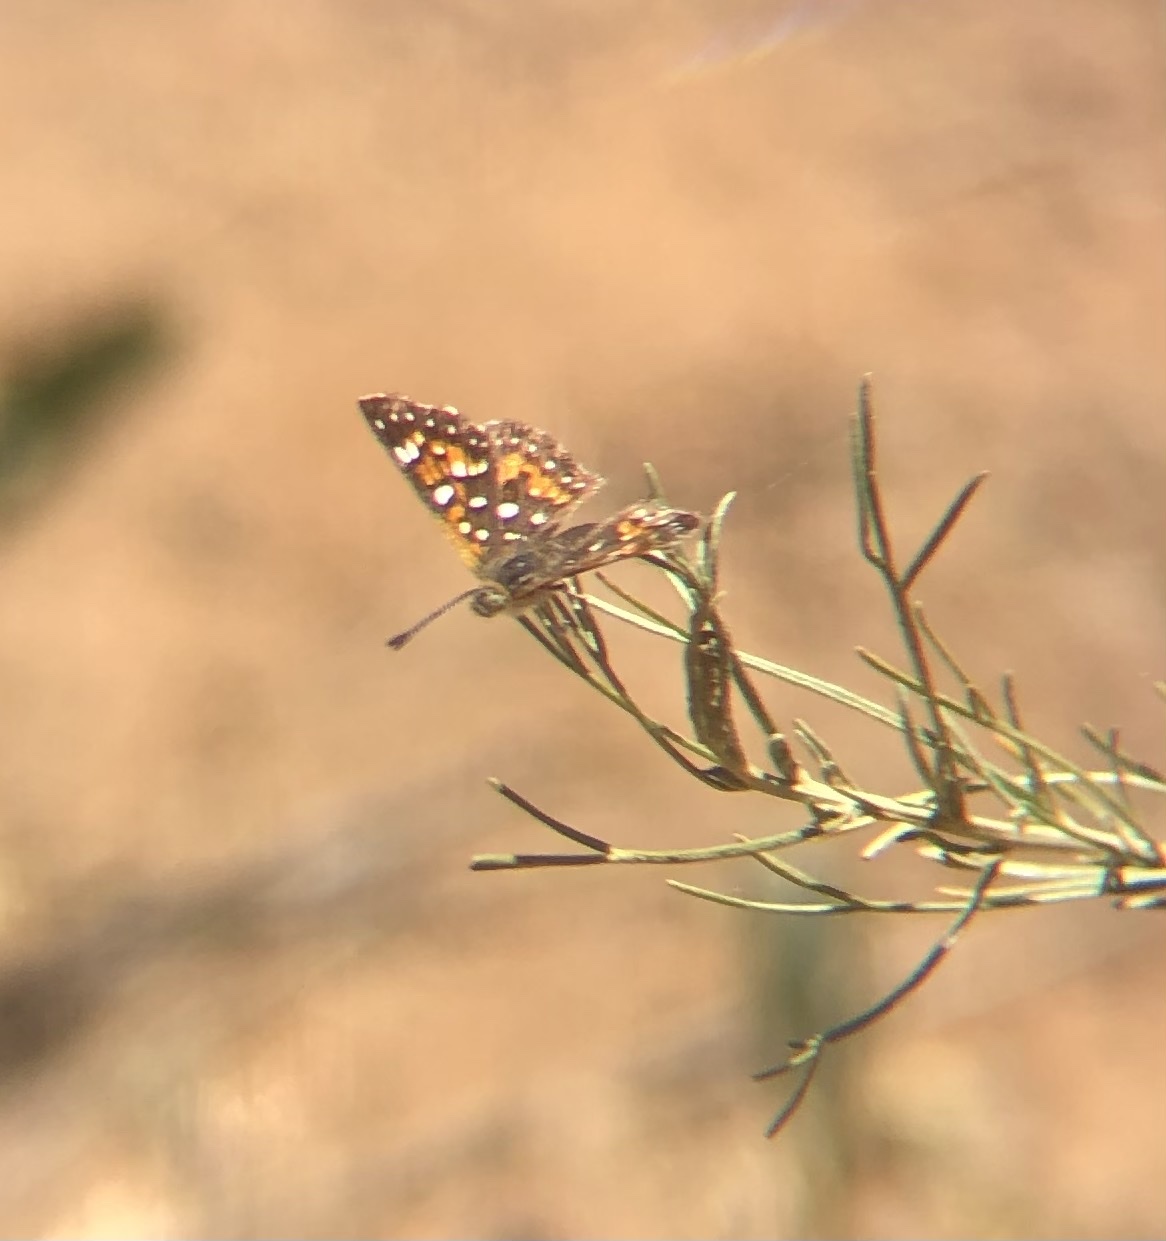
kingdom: Animalia
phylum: Arthropoda
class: Insecta
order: Lepidoptera
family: Riodinidae
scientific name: Riodinidae
